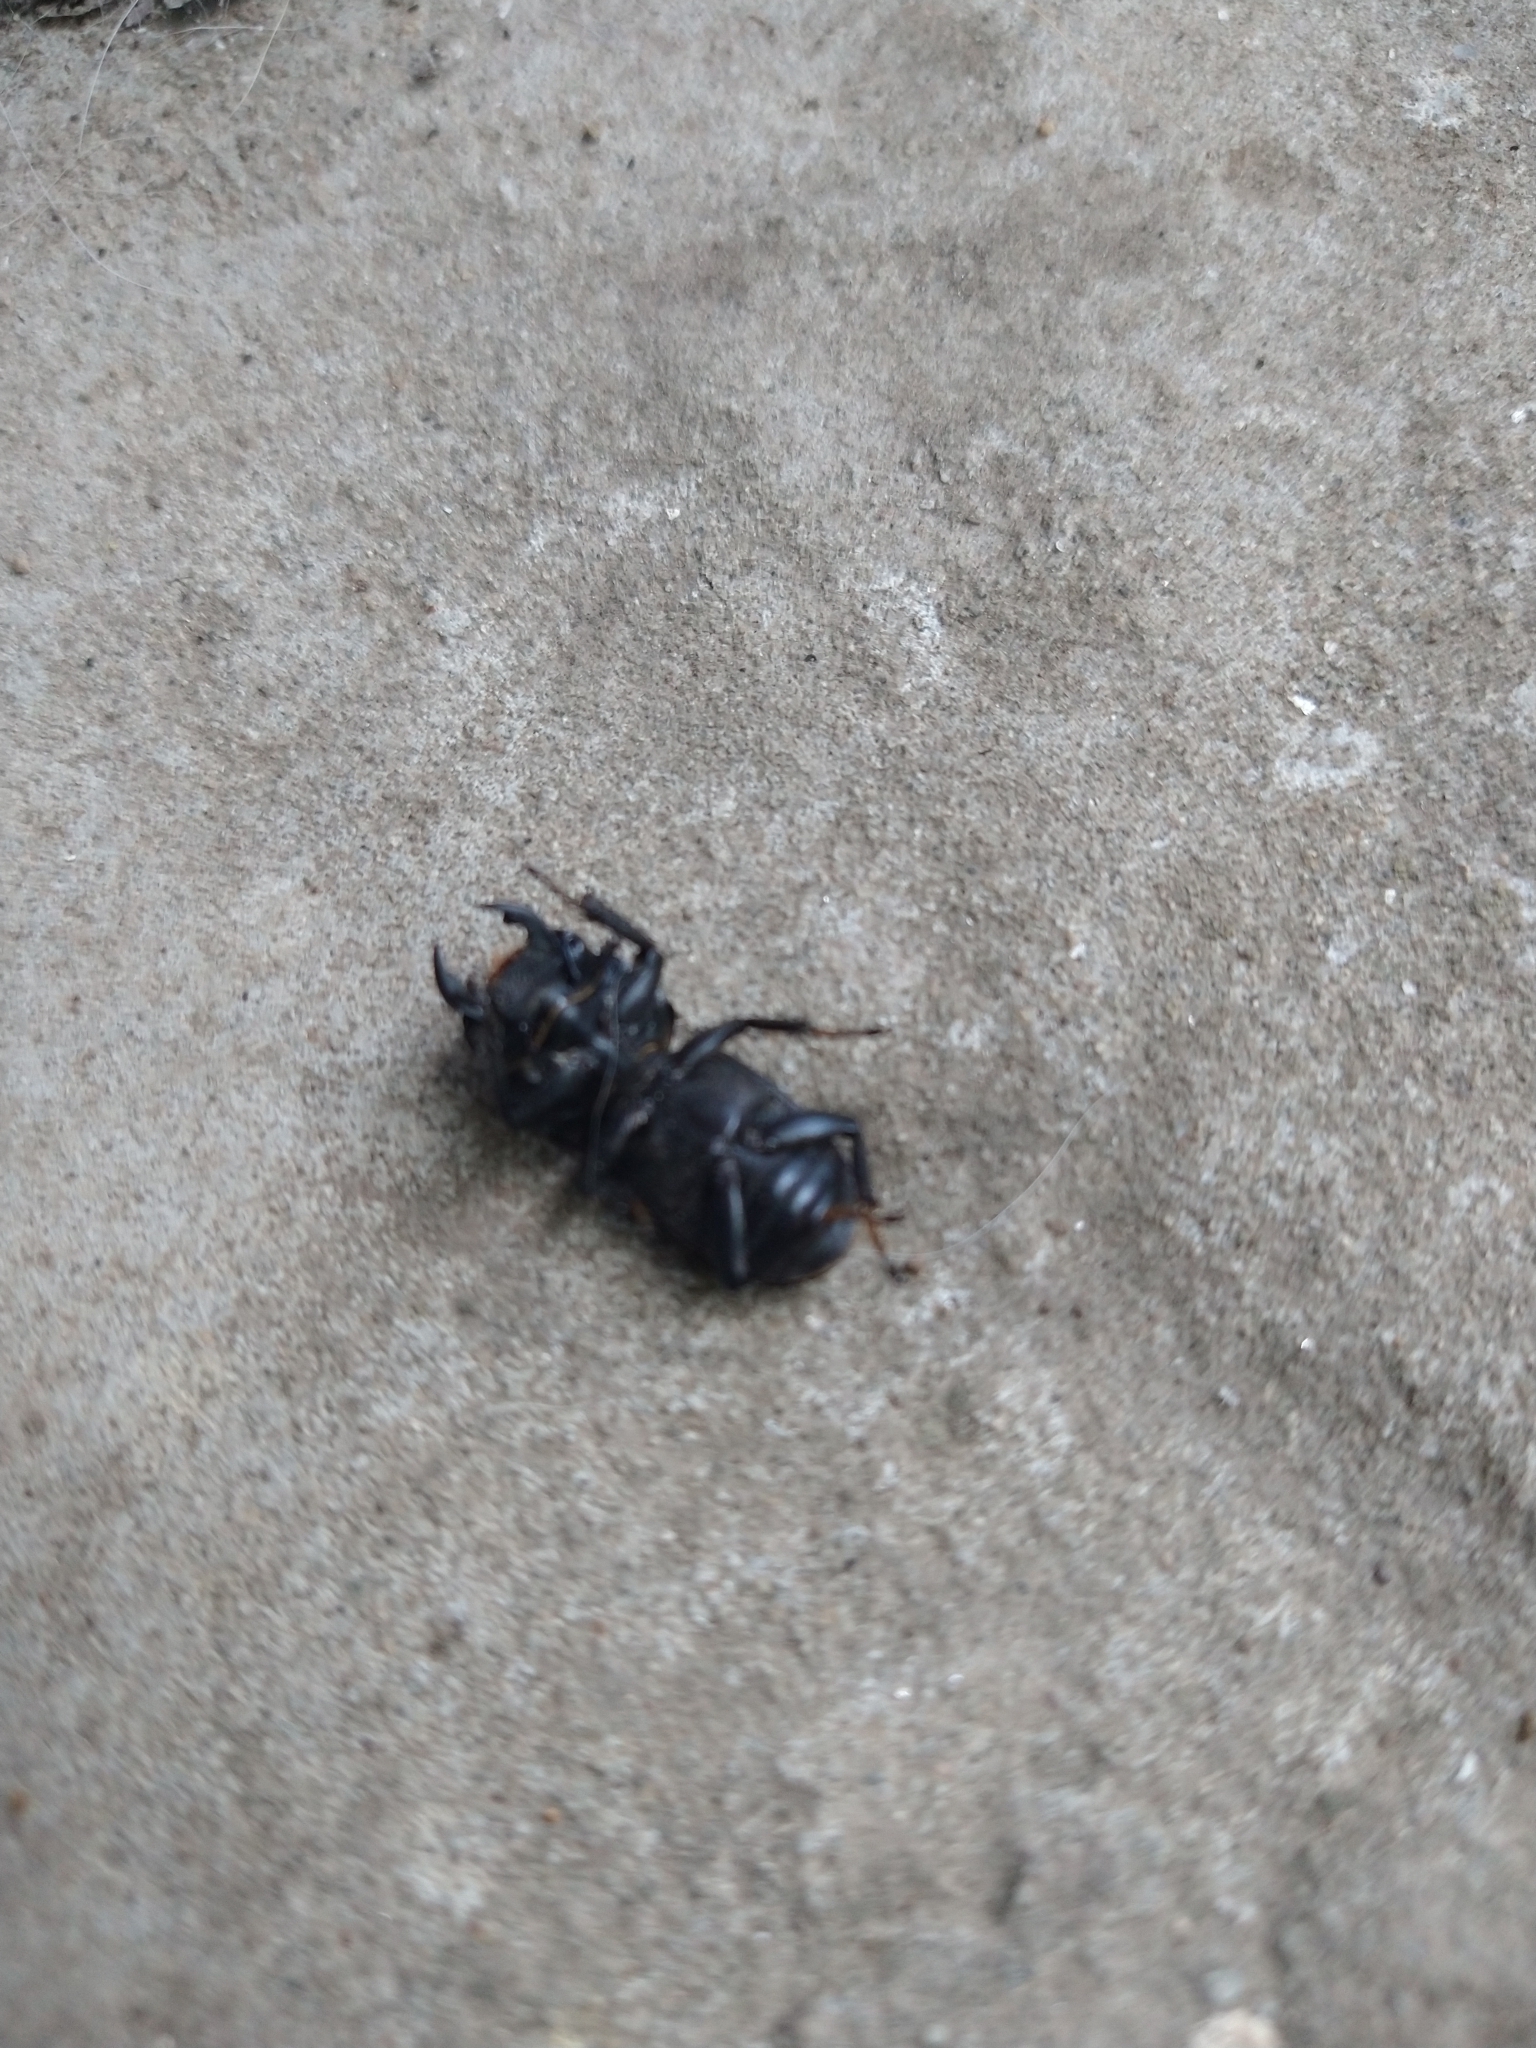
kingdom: Animalia
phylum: Arthropoda
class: Insecta
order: Coleoptera
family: Lucanidae
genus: Dorcus
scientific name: Dorcus parallelipipedus
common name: Lesser stag beetle
